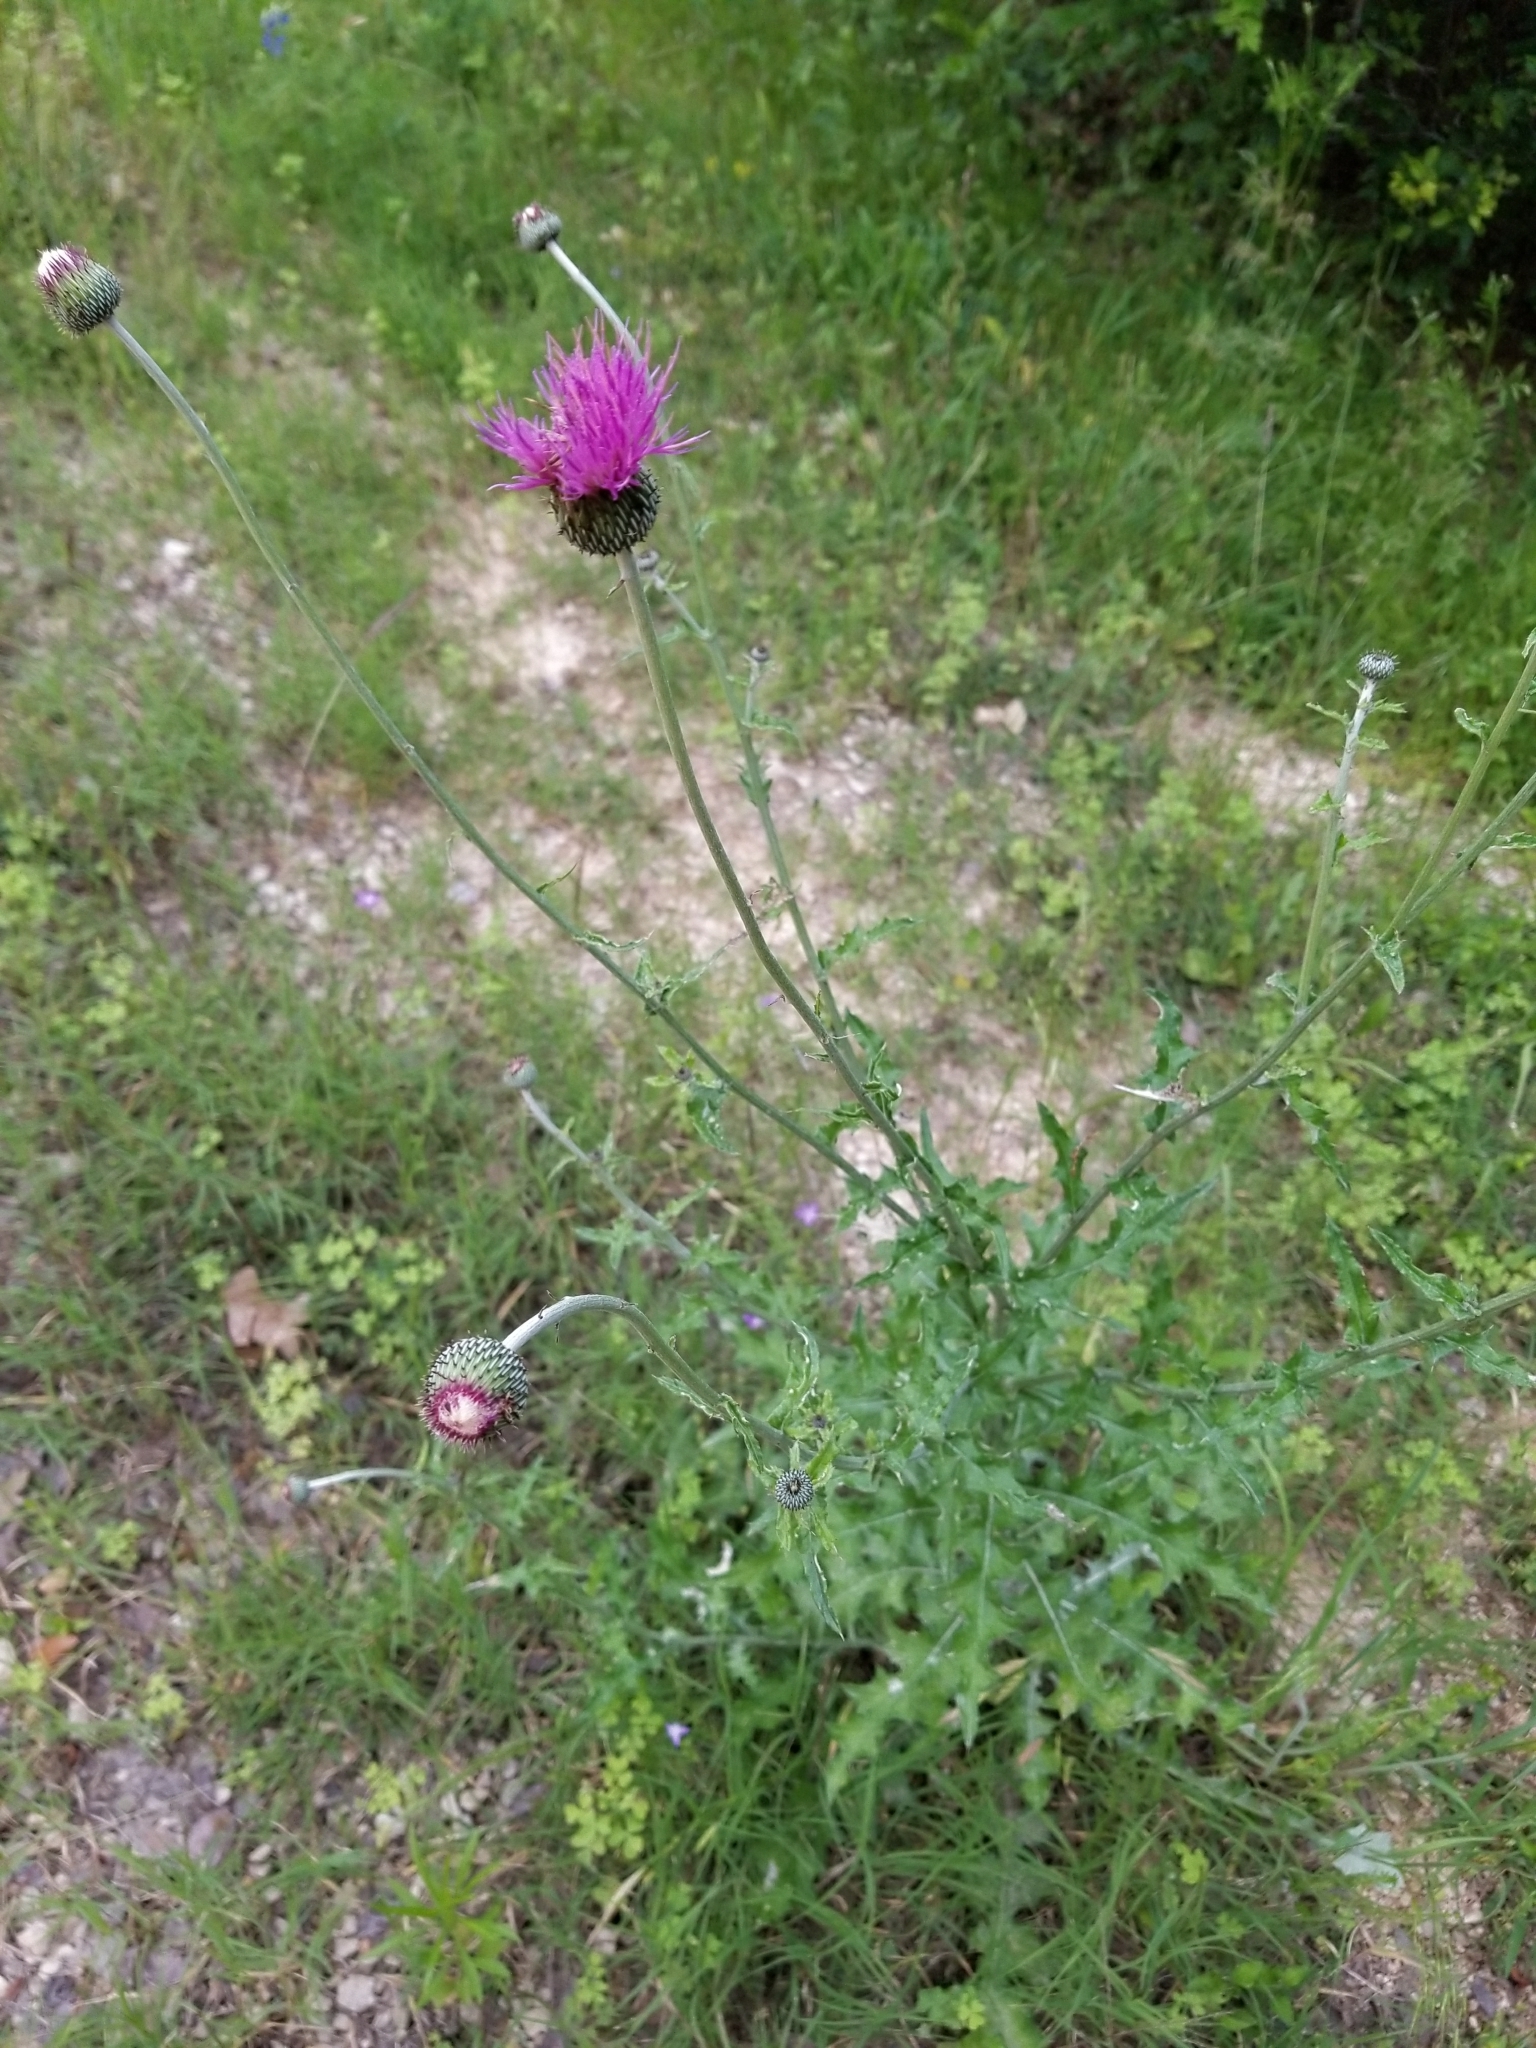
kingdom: Plantae
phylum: Tracheophyta
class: Magnoliopsida
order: Asterales
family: Asteraceae
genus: Cirsium
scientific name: Cirsium texanum
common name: Texas purple thistle
